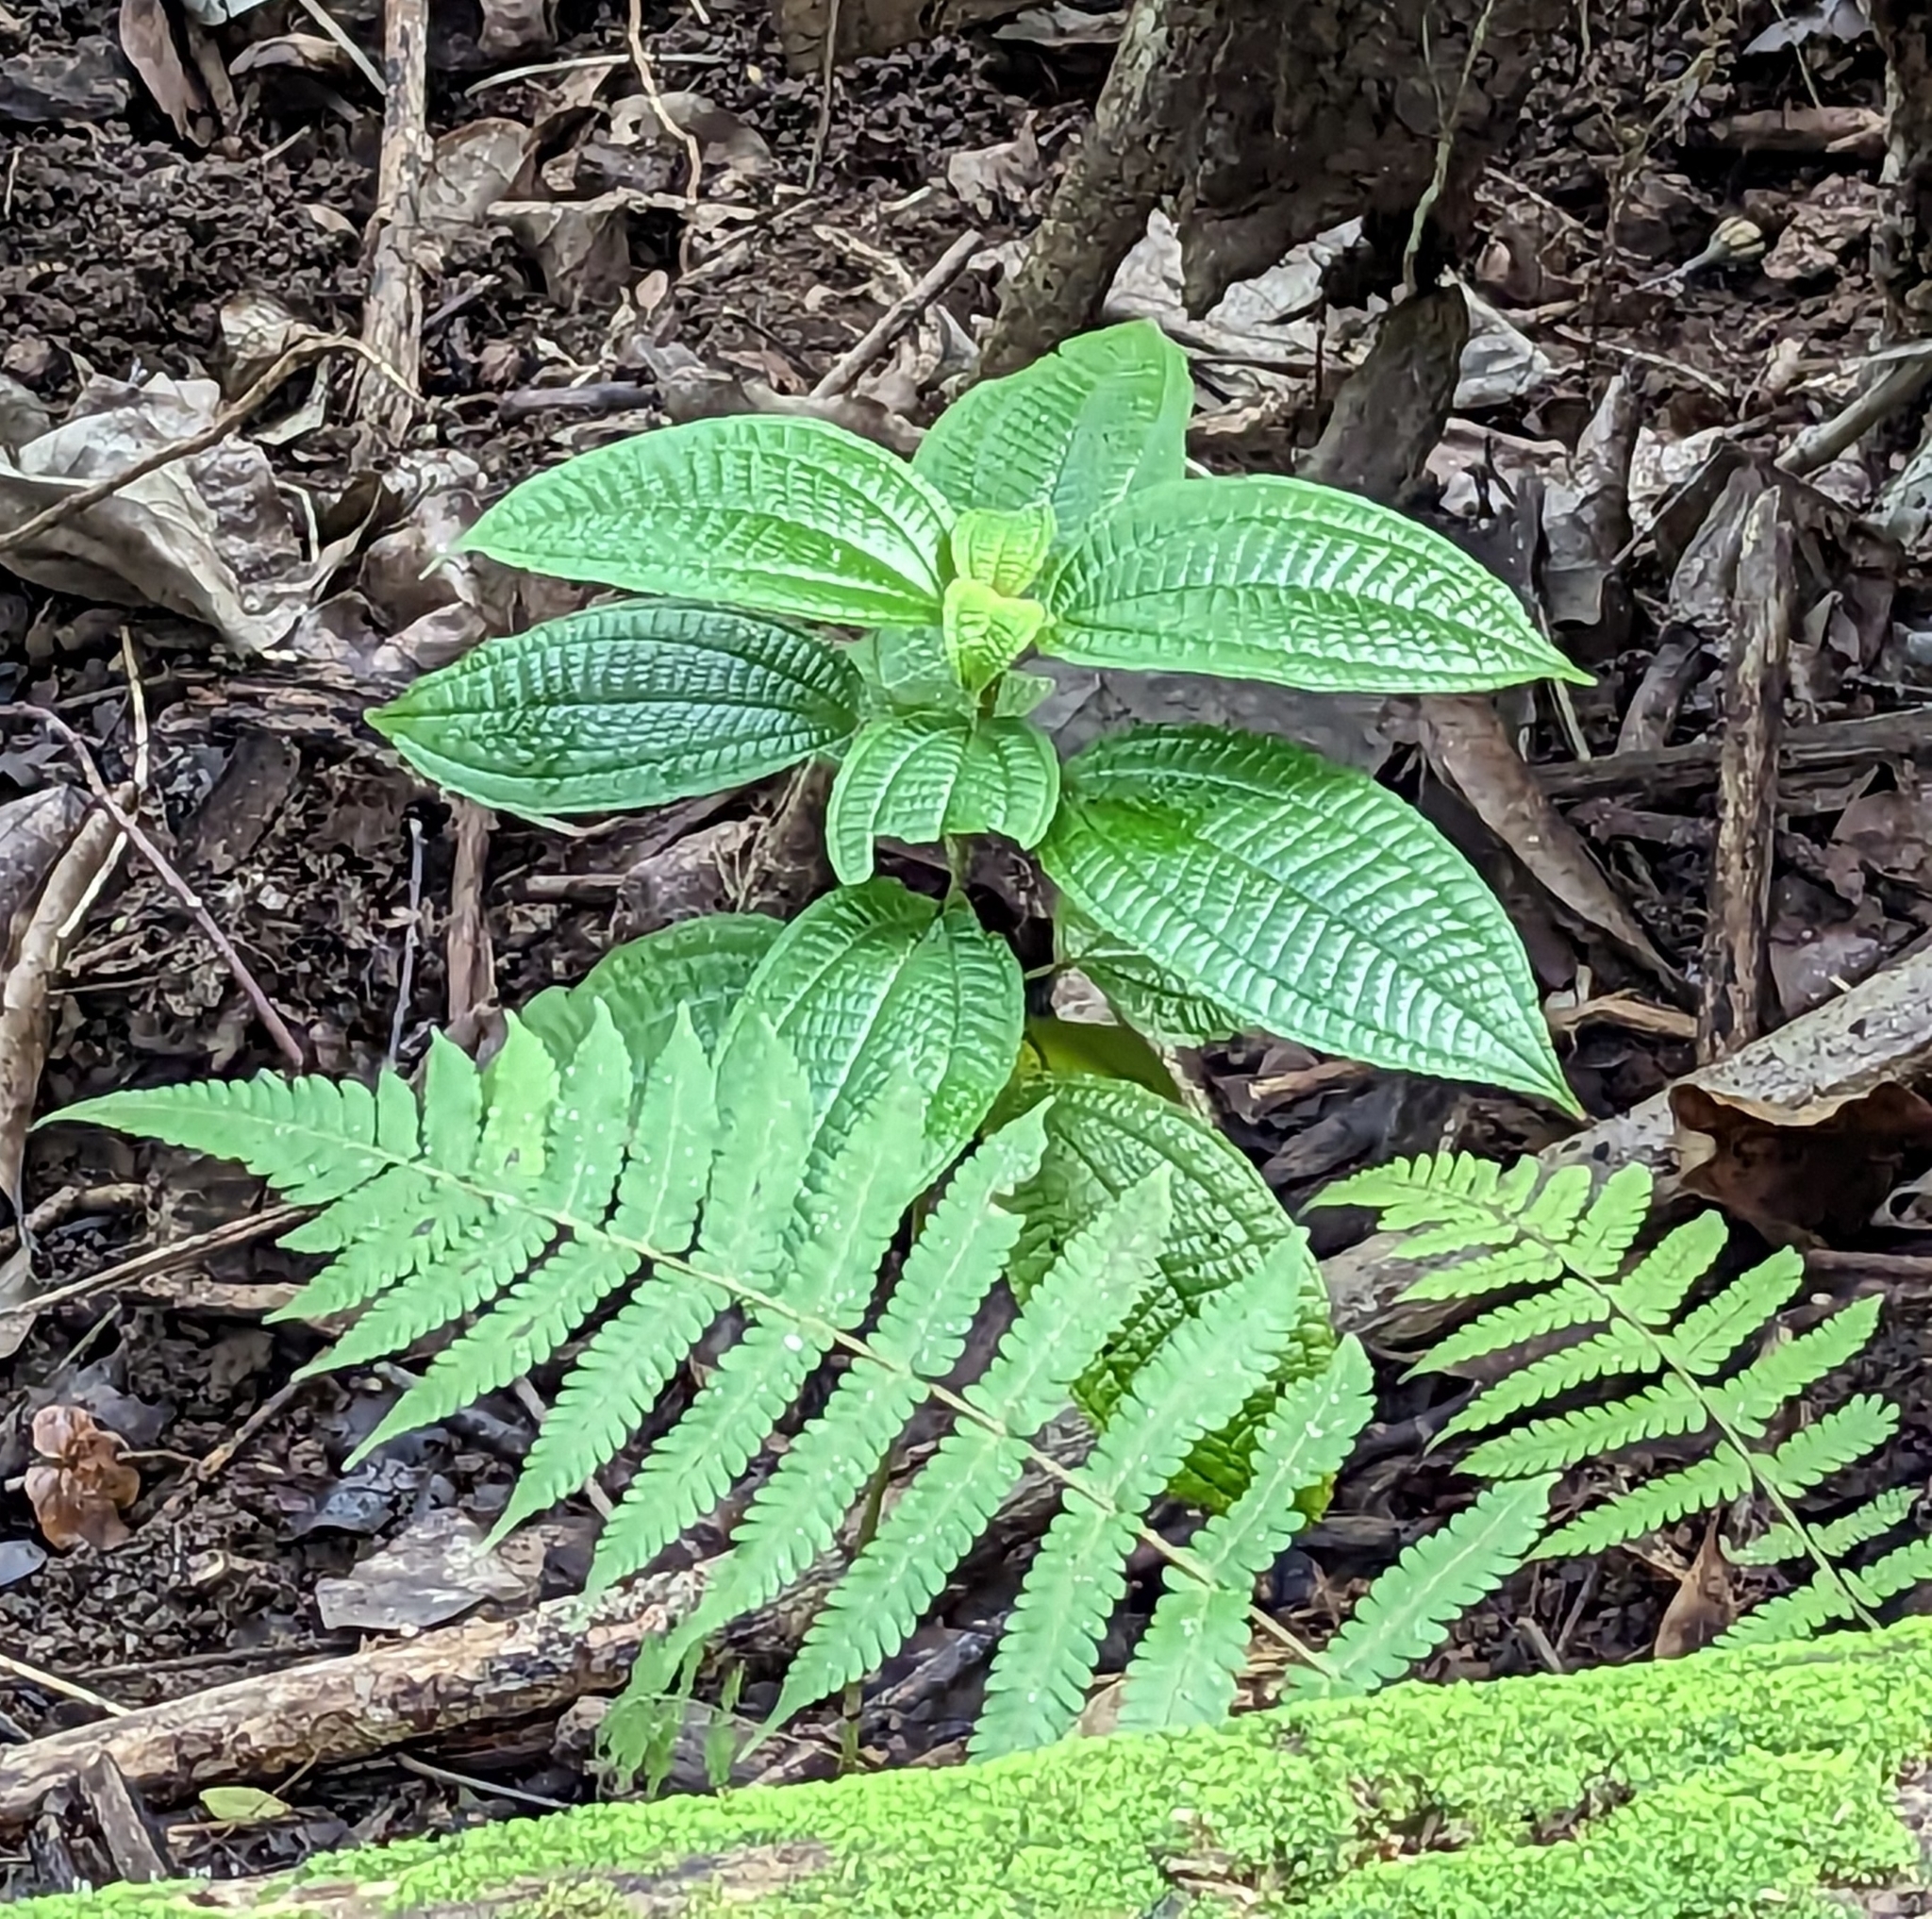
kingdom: Plantae
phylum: Tracheophyta
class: Magnoliopsida
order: Myrtales
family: Melastomataceae
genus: Miconia
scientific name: Miconia crenata
